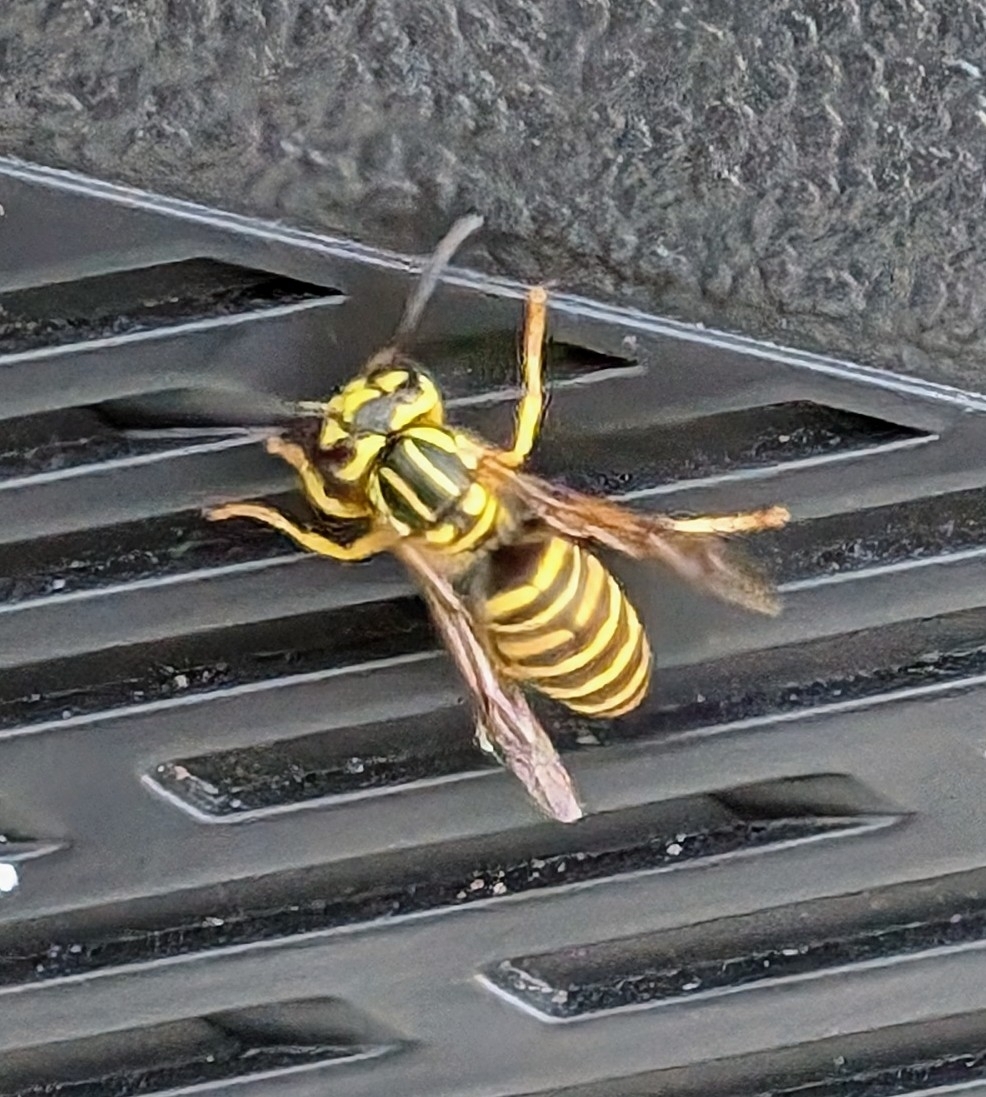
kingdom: Animalia
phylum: Arthropoda
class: Insecta
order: Hymenoptera
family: Vespidae
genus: Vespula
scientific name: Vespula squamosa
